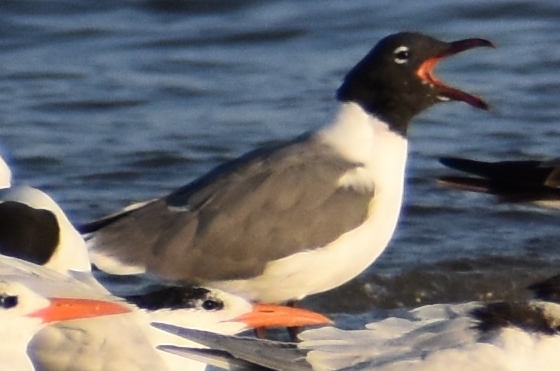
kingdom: Animalia
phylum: Chordata
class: Aves
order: Charadriiformes
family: Laridae
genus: Leucophaeus
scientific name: Leucophaeus atricilla
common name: Laughing gull
